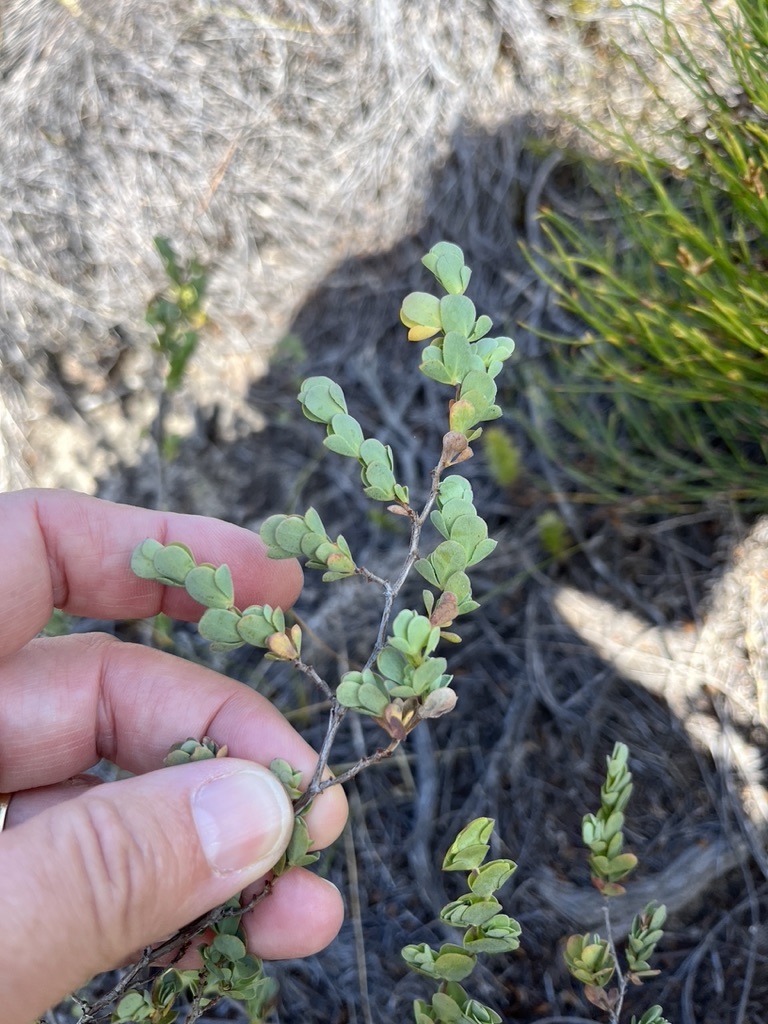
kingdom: Plantae
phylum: Tracheophyta
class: Magnoliopsida
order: Rosales
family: Rosaceae
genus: Cliffortia
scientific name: Cliffortia obcordata
